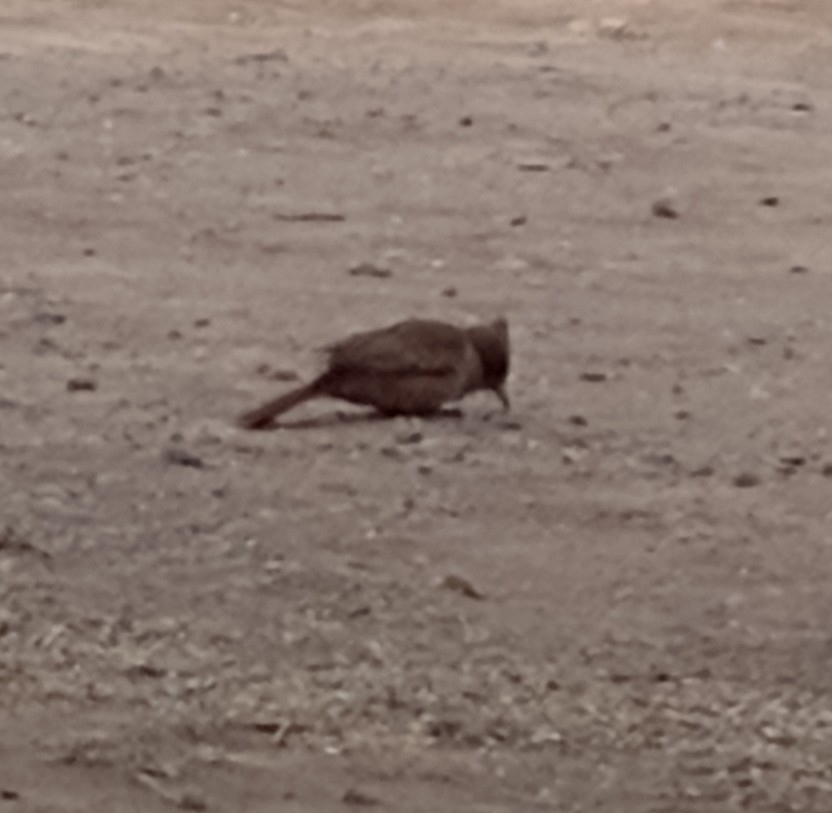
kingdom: Animalia
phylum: Chordata
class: Aves
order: Passeriformes
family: Furnariidae
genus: Pseudoseisura
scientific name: Pseudoseisura lophotes
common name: Brown cacholote
